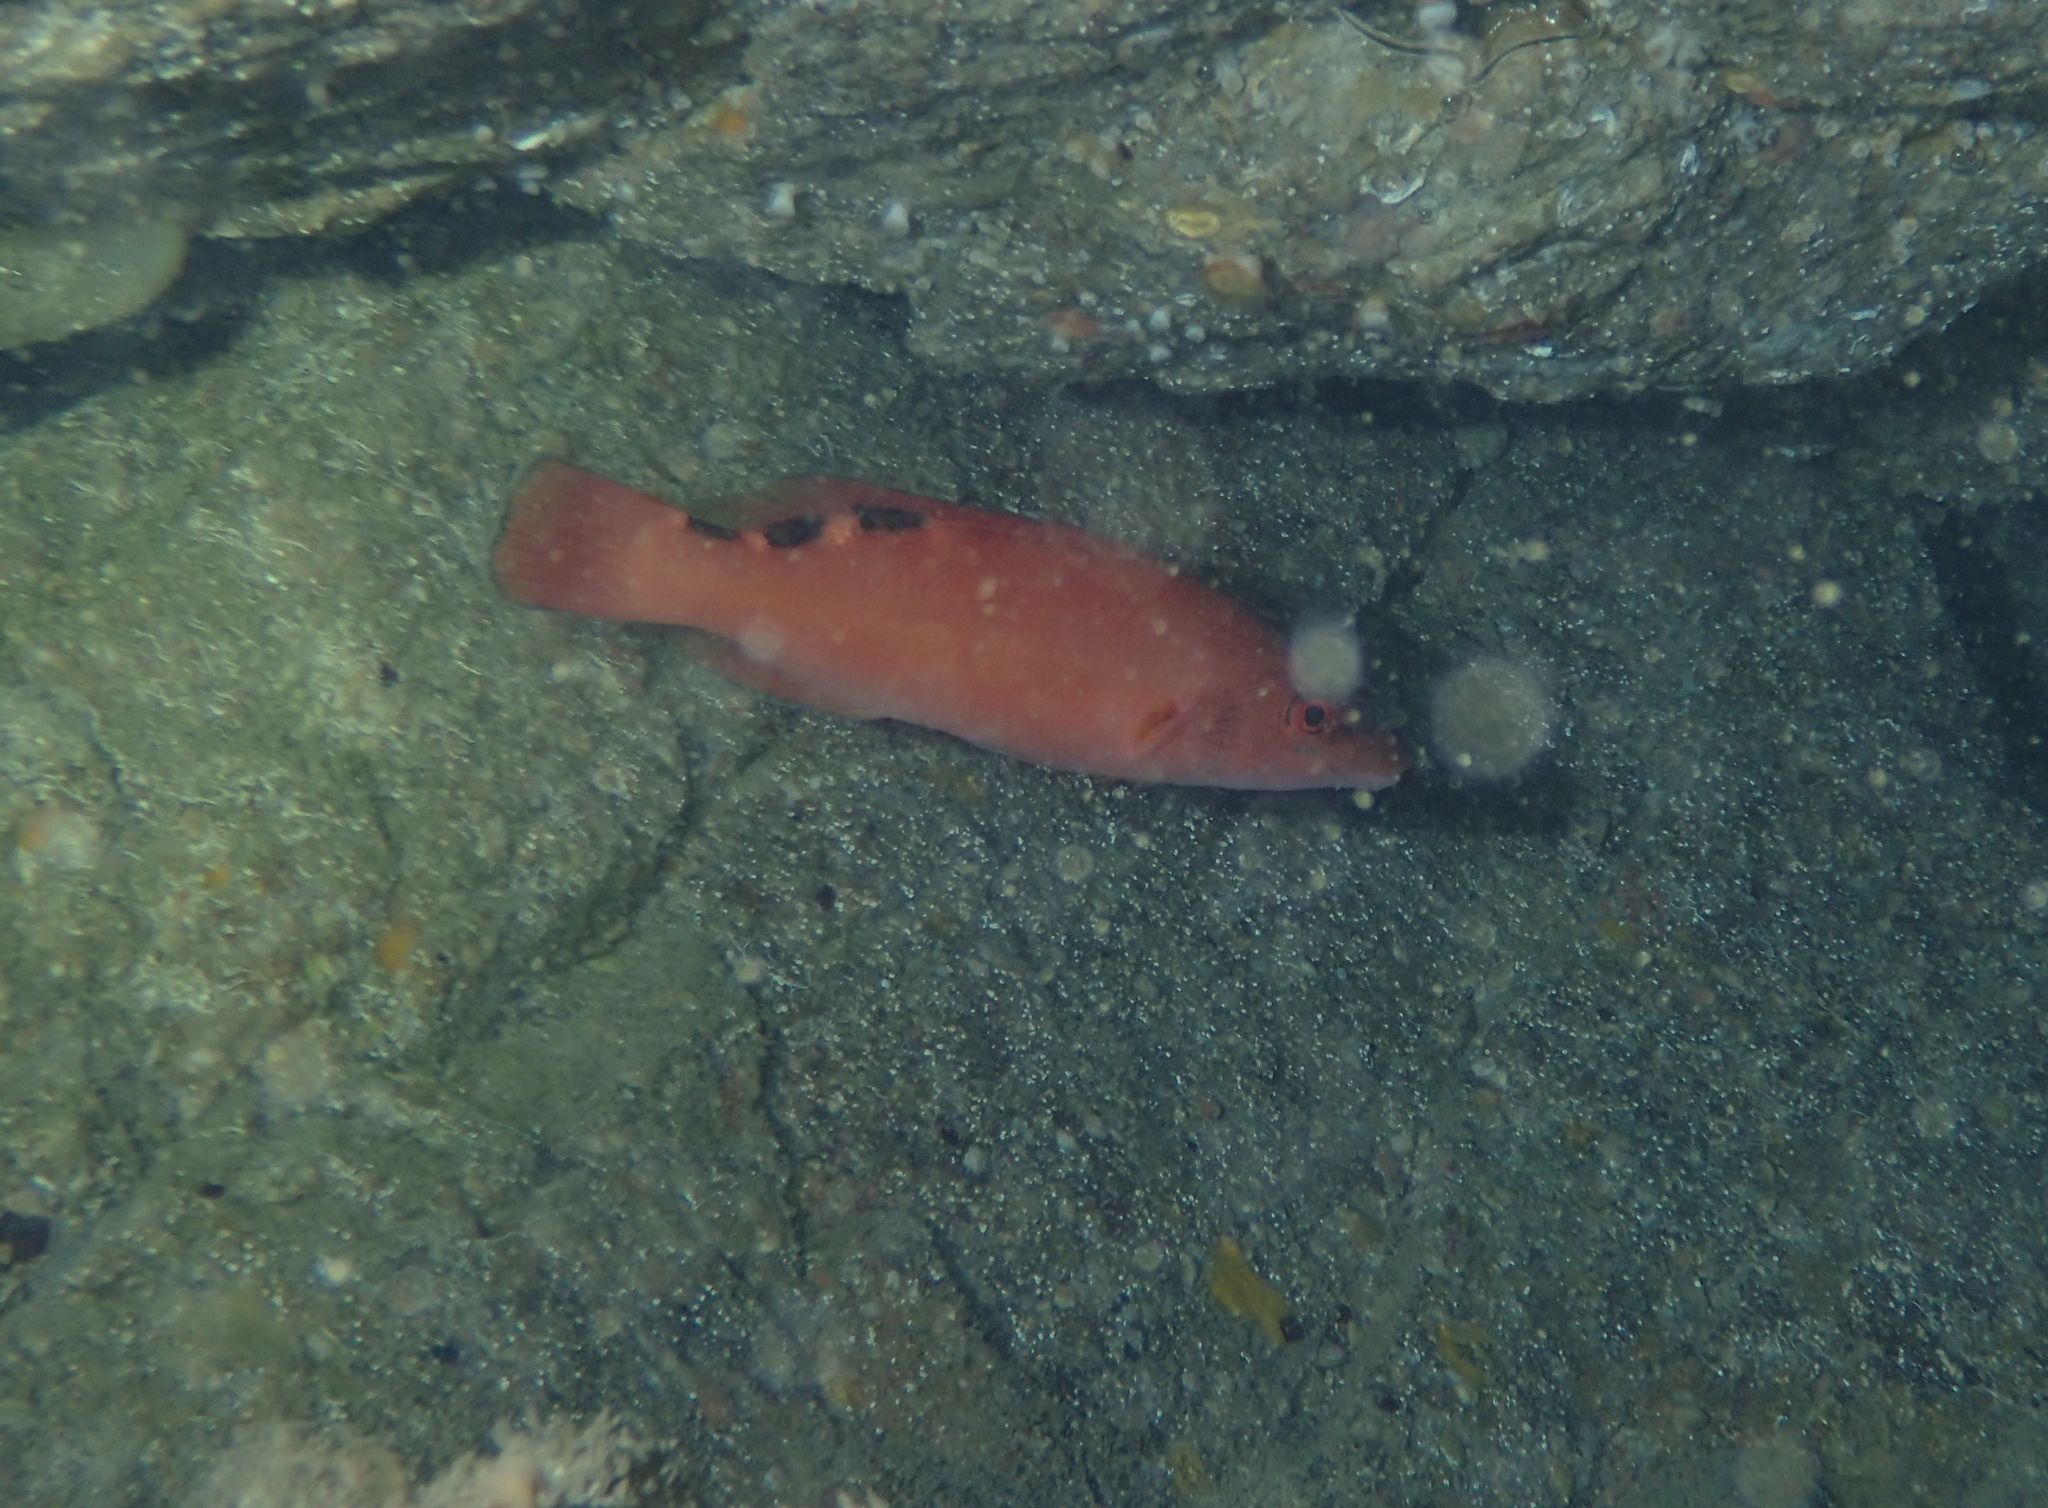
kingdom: Animalia
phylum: Chordata
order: Perciformes
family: Labridae
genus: Labrus
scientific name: Labrus mixtus
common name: Cuckoo wrasse
